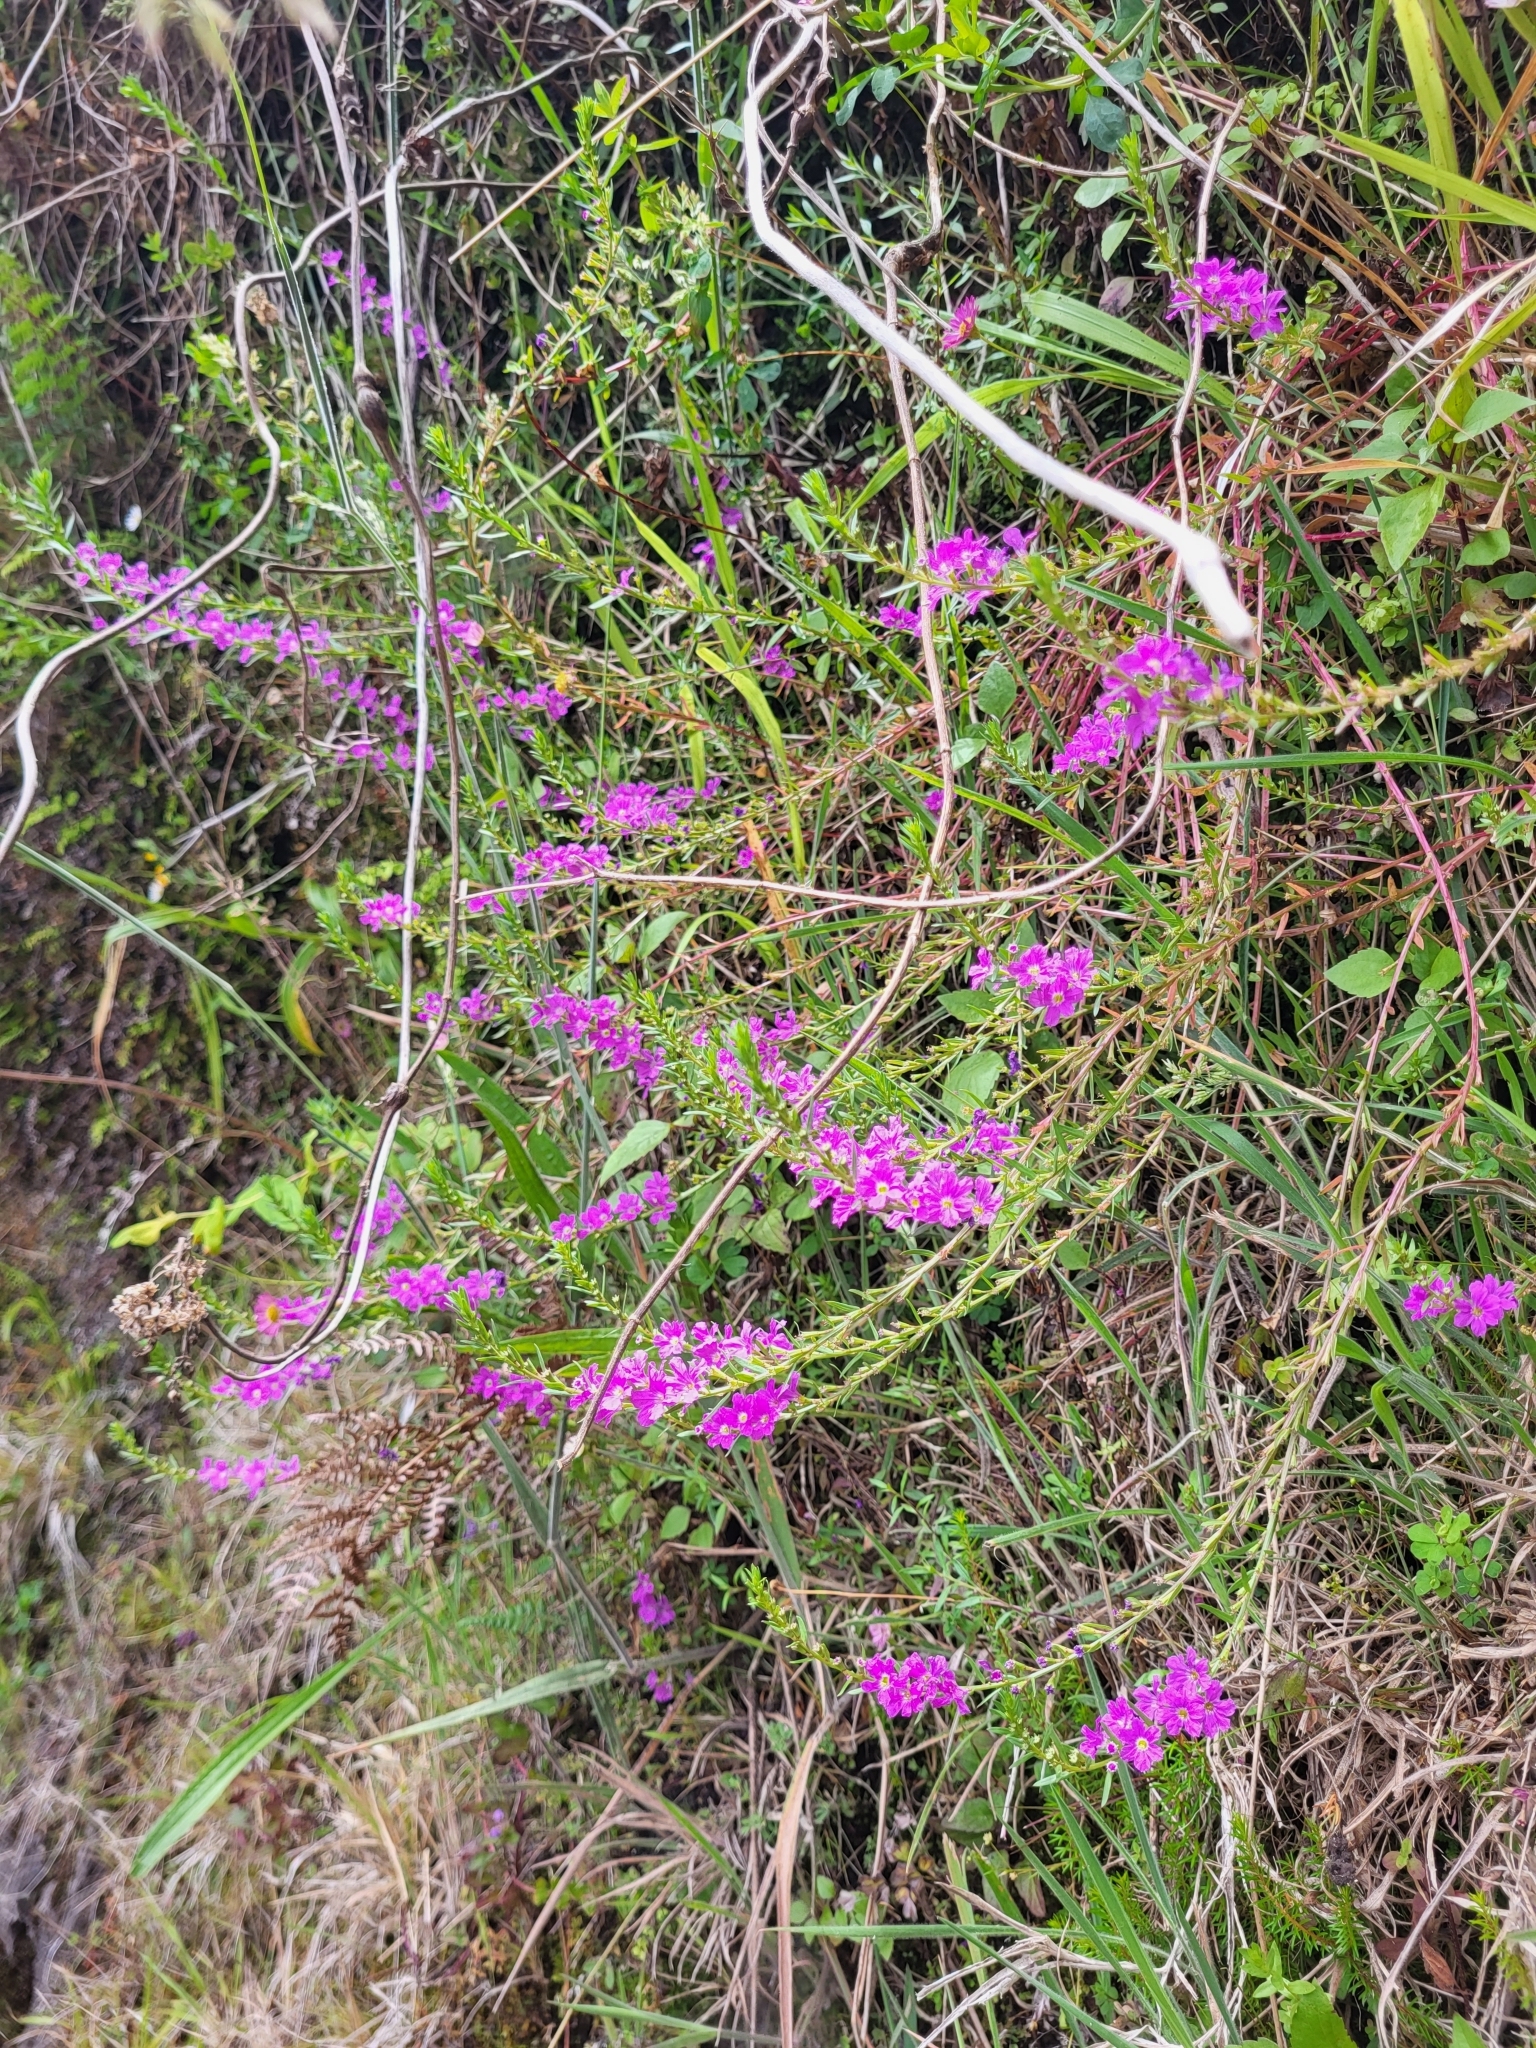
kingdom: Plantae
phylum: Tracheophyta
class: Magnoliopsida
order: Myrtales
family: Lythraceae
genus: Lythrum
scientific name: Lythrum junceum
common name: False grass-poly
